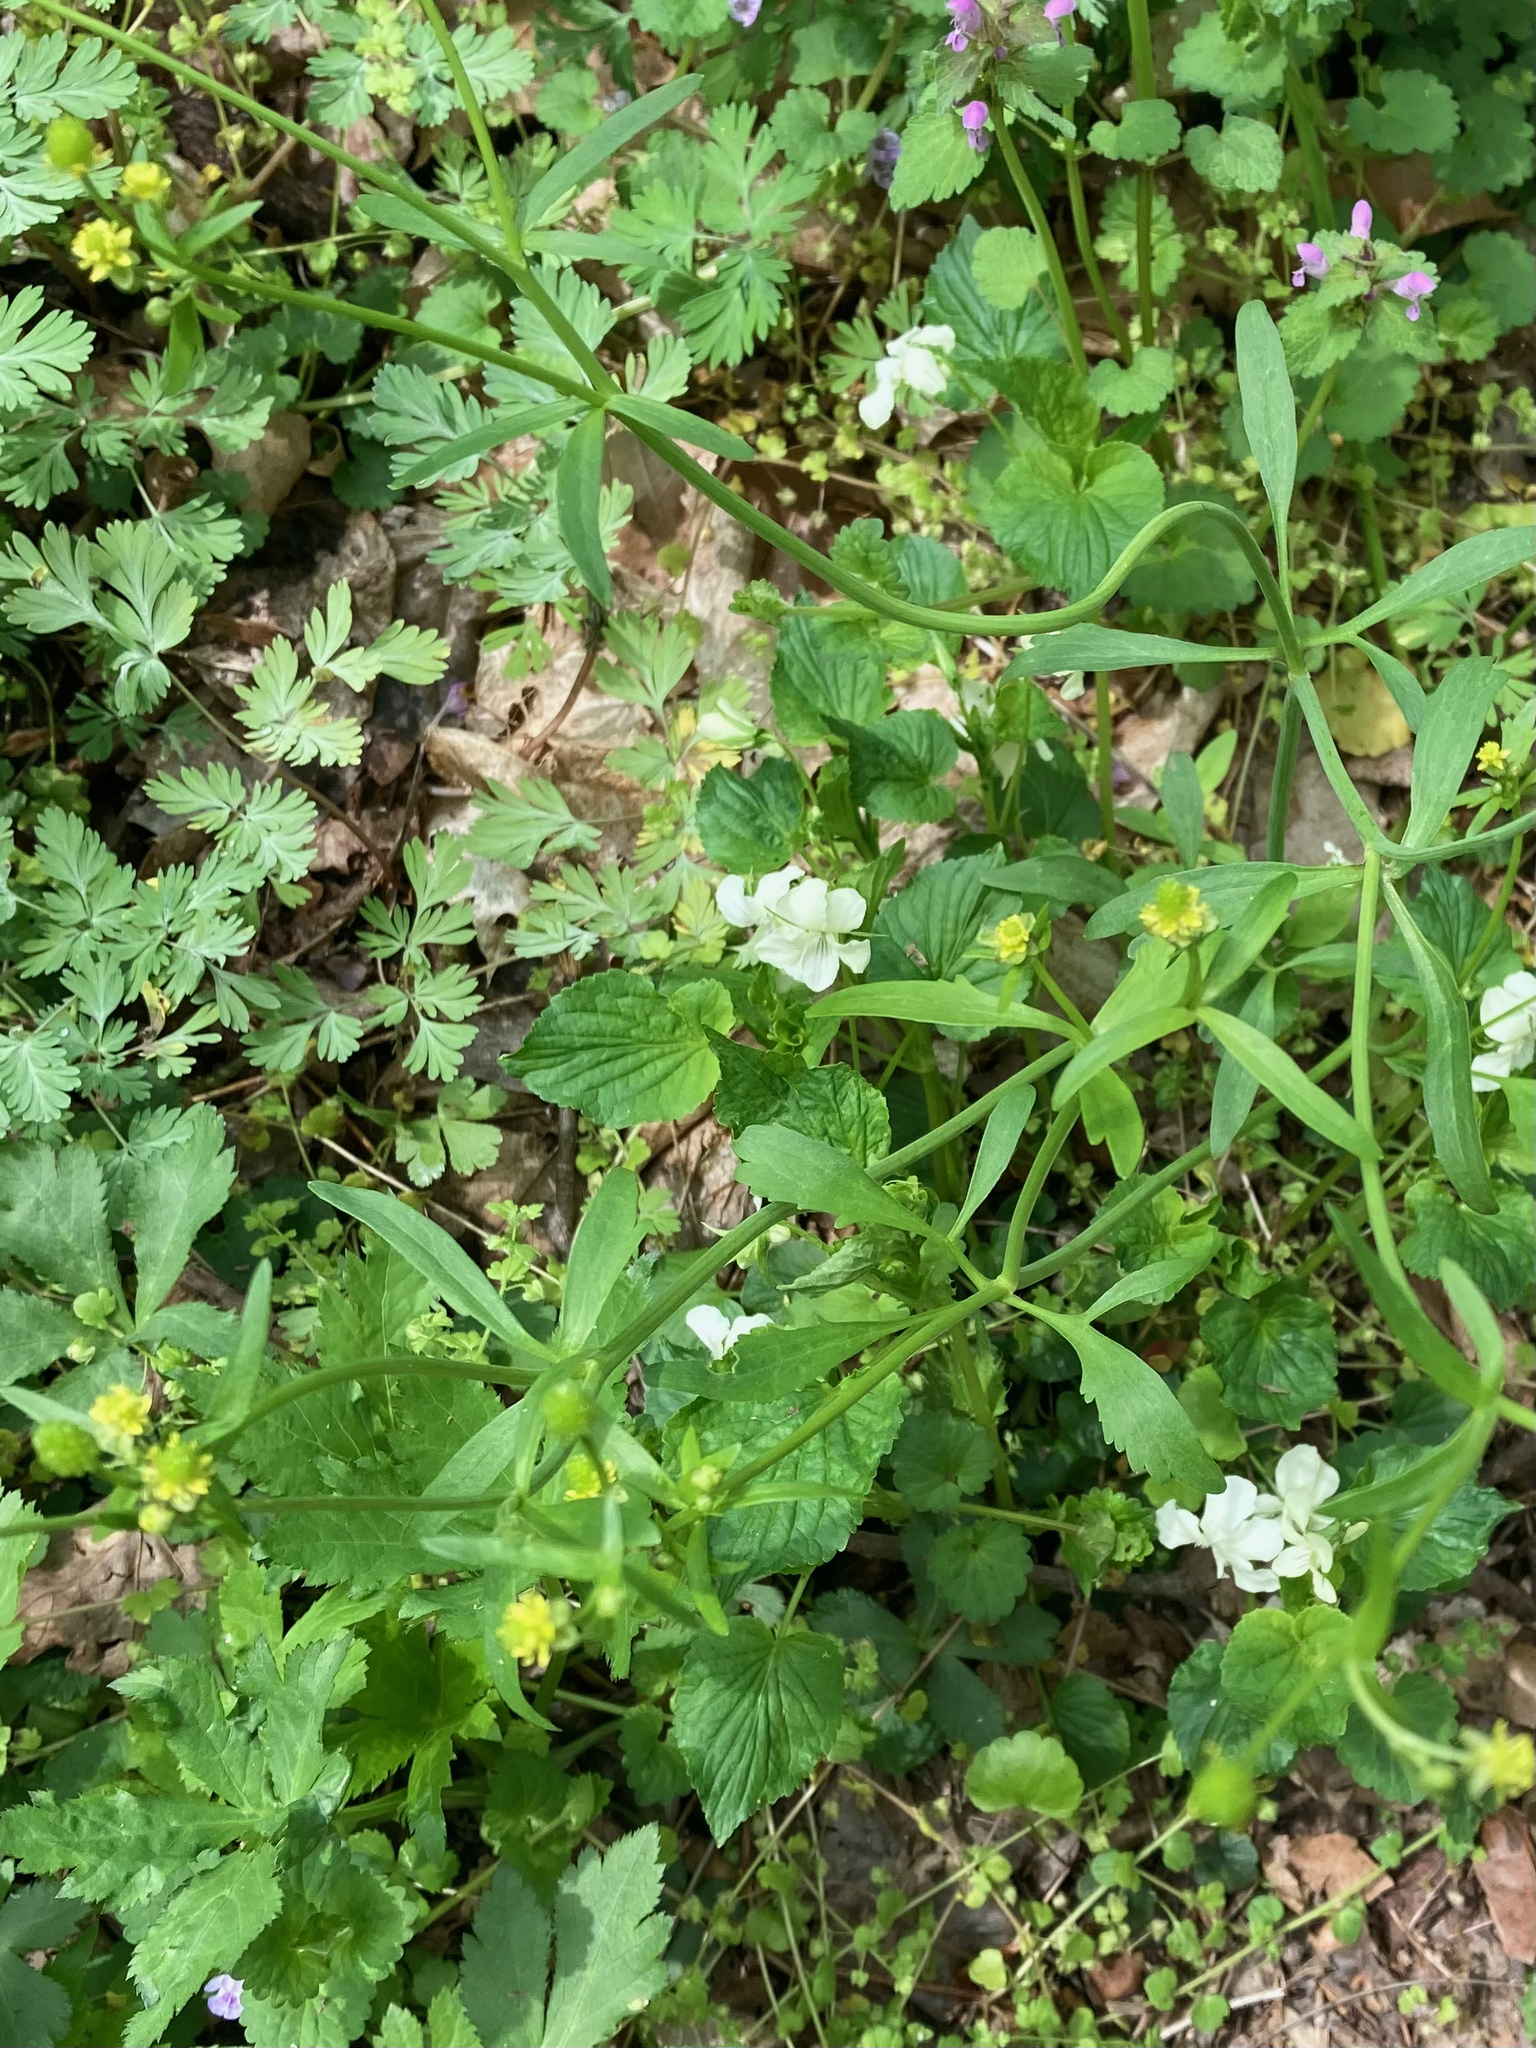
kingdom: Plantae
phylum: Tracheophyta
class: Magnoliopsida
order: Ranunculales
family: Ranunculaceae
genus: Ranunculus
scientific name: Ranunculus abortivus
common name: Early wood buttercup
